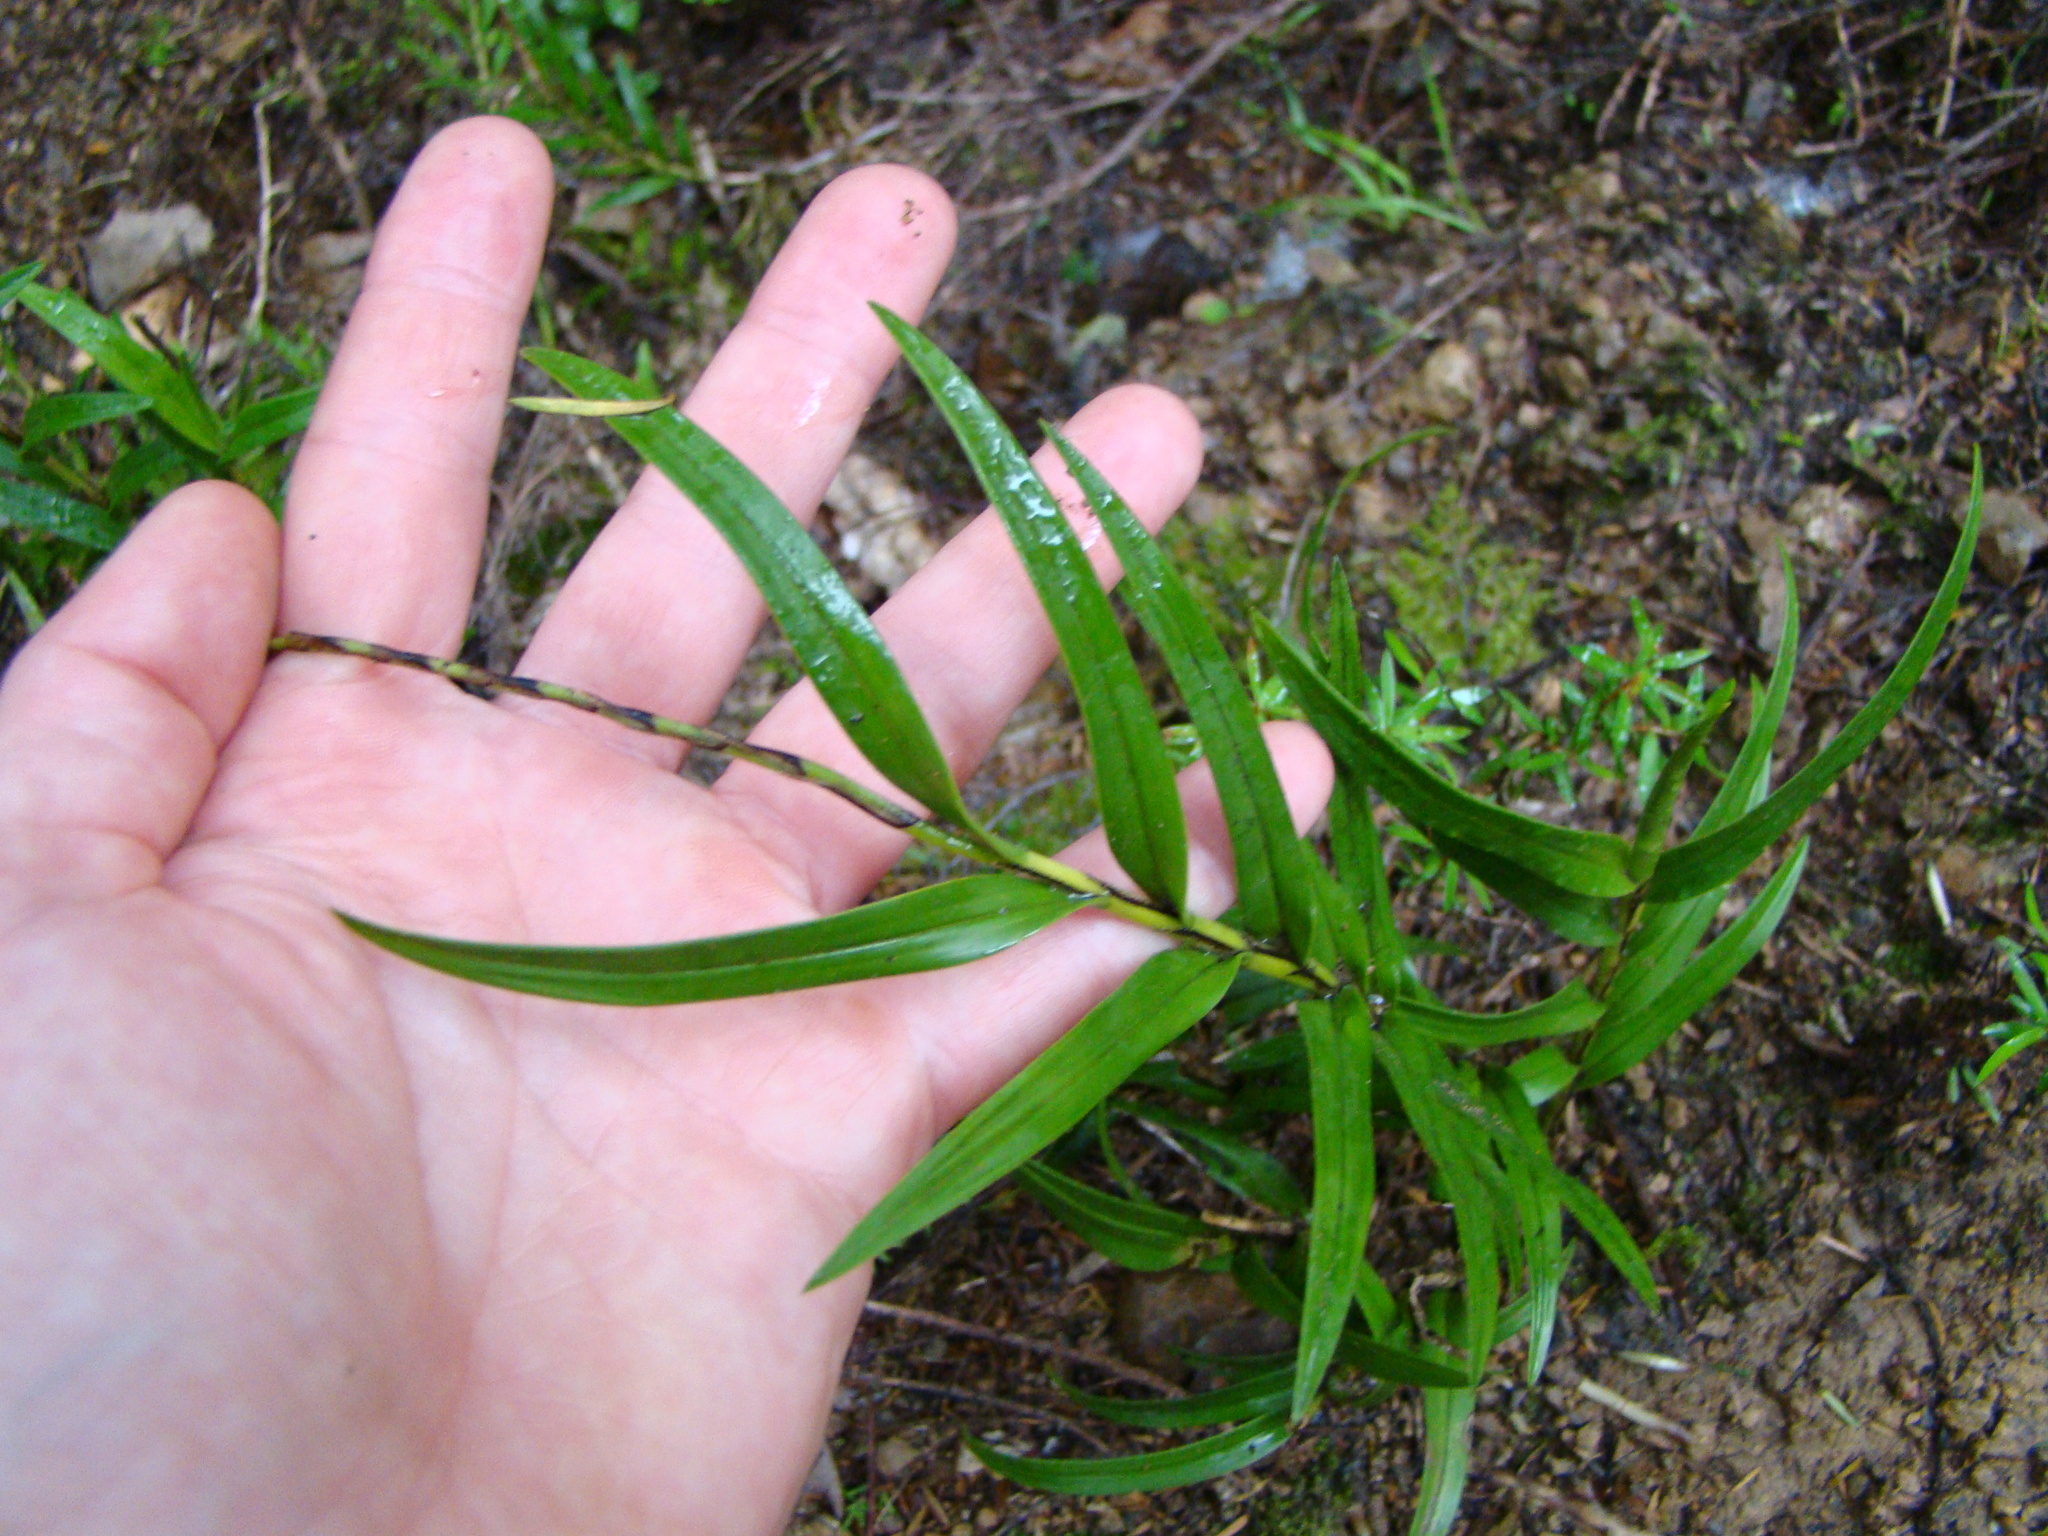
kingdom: Plantae
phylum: Tracheophyta
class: Liliopsida
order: Asparagales
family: Orchidaceae
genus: Earina
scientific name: Earina autumnalis
